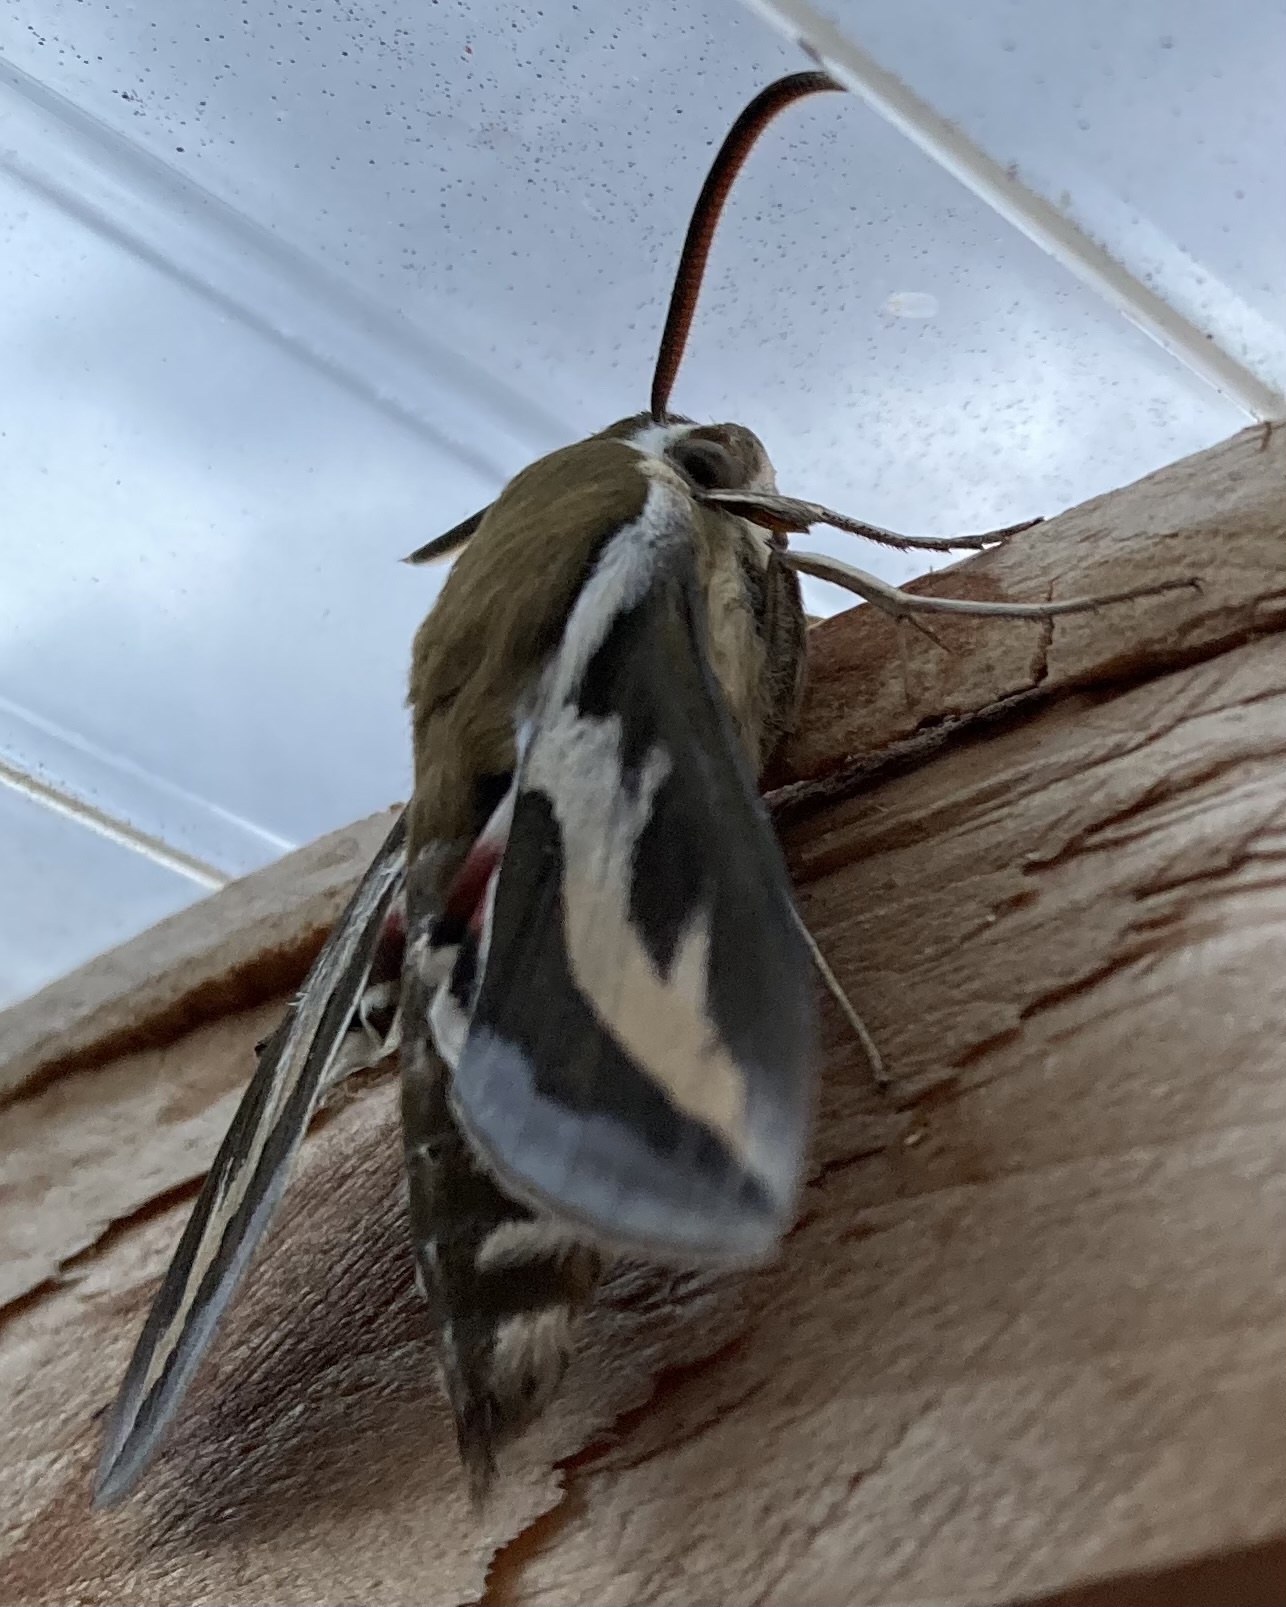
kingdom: Animalia
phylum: Arthropoda
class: Insecta
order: Lepidoptera
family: Sphingidae
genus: Hyles
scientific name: Hyles gallii
